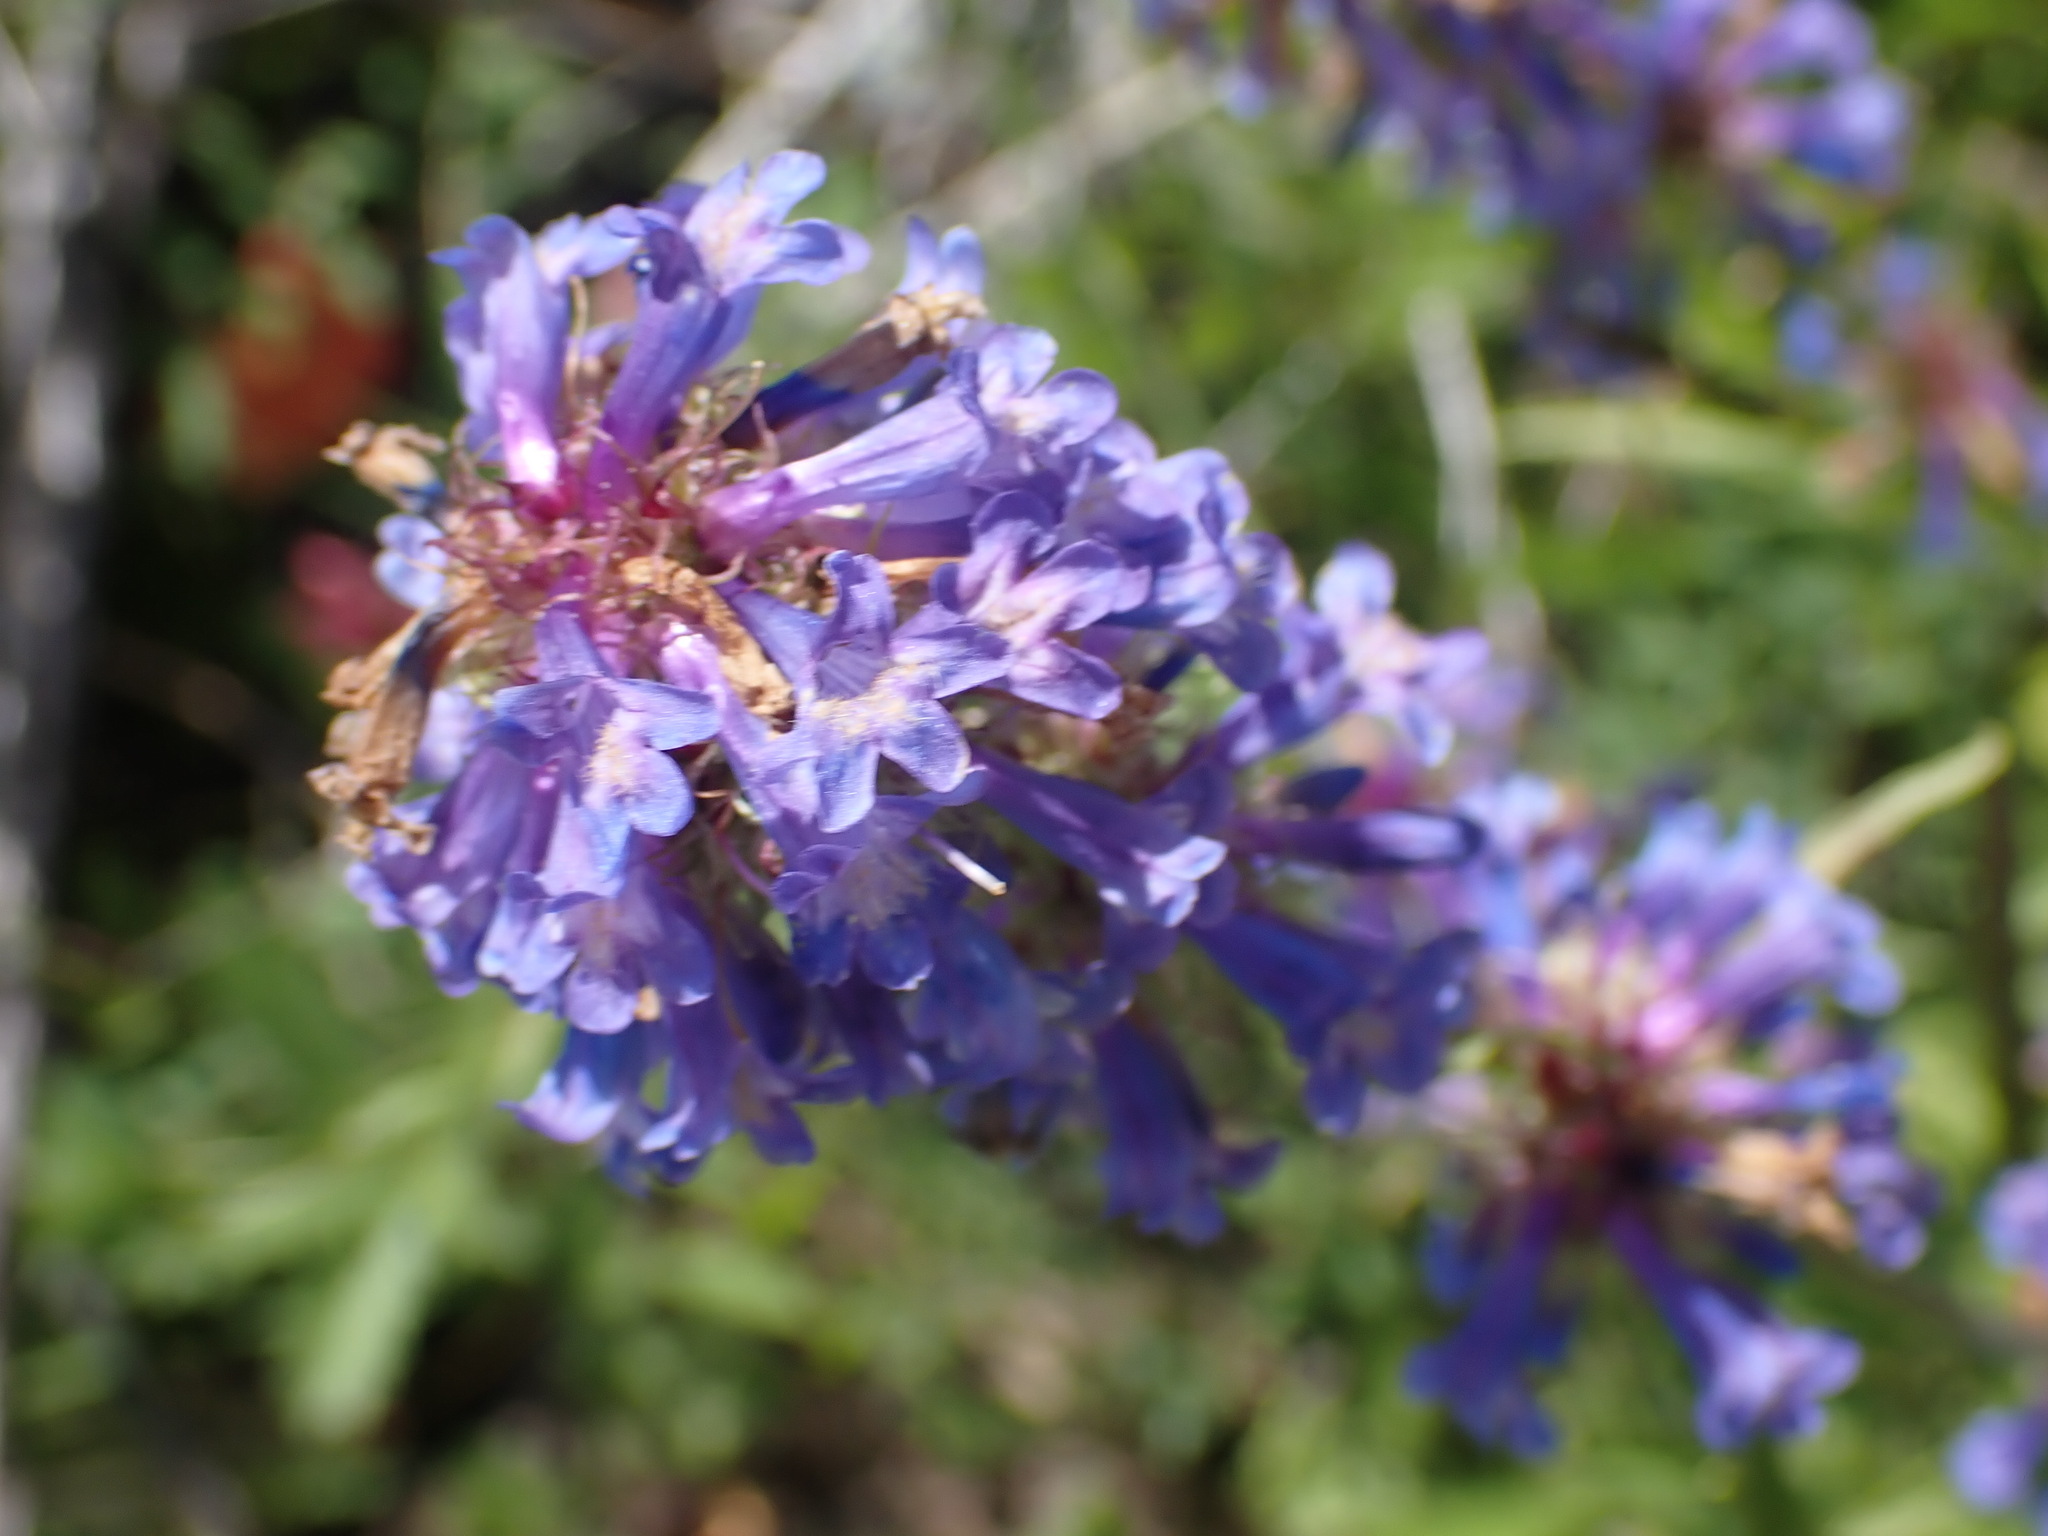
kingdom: Plantae
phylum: Tracheophyta
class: Magnoliopsida
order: Lamiales
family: Plantaginaceae
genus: Penstemon
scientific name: Penstemon procerus
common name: Small-flower penstemon
